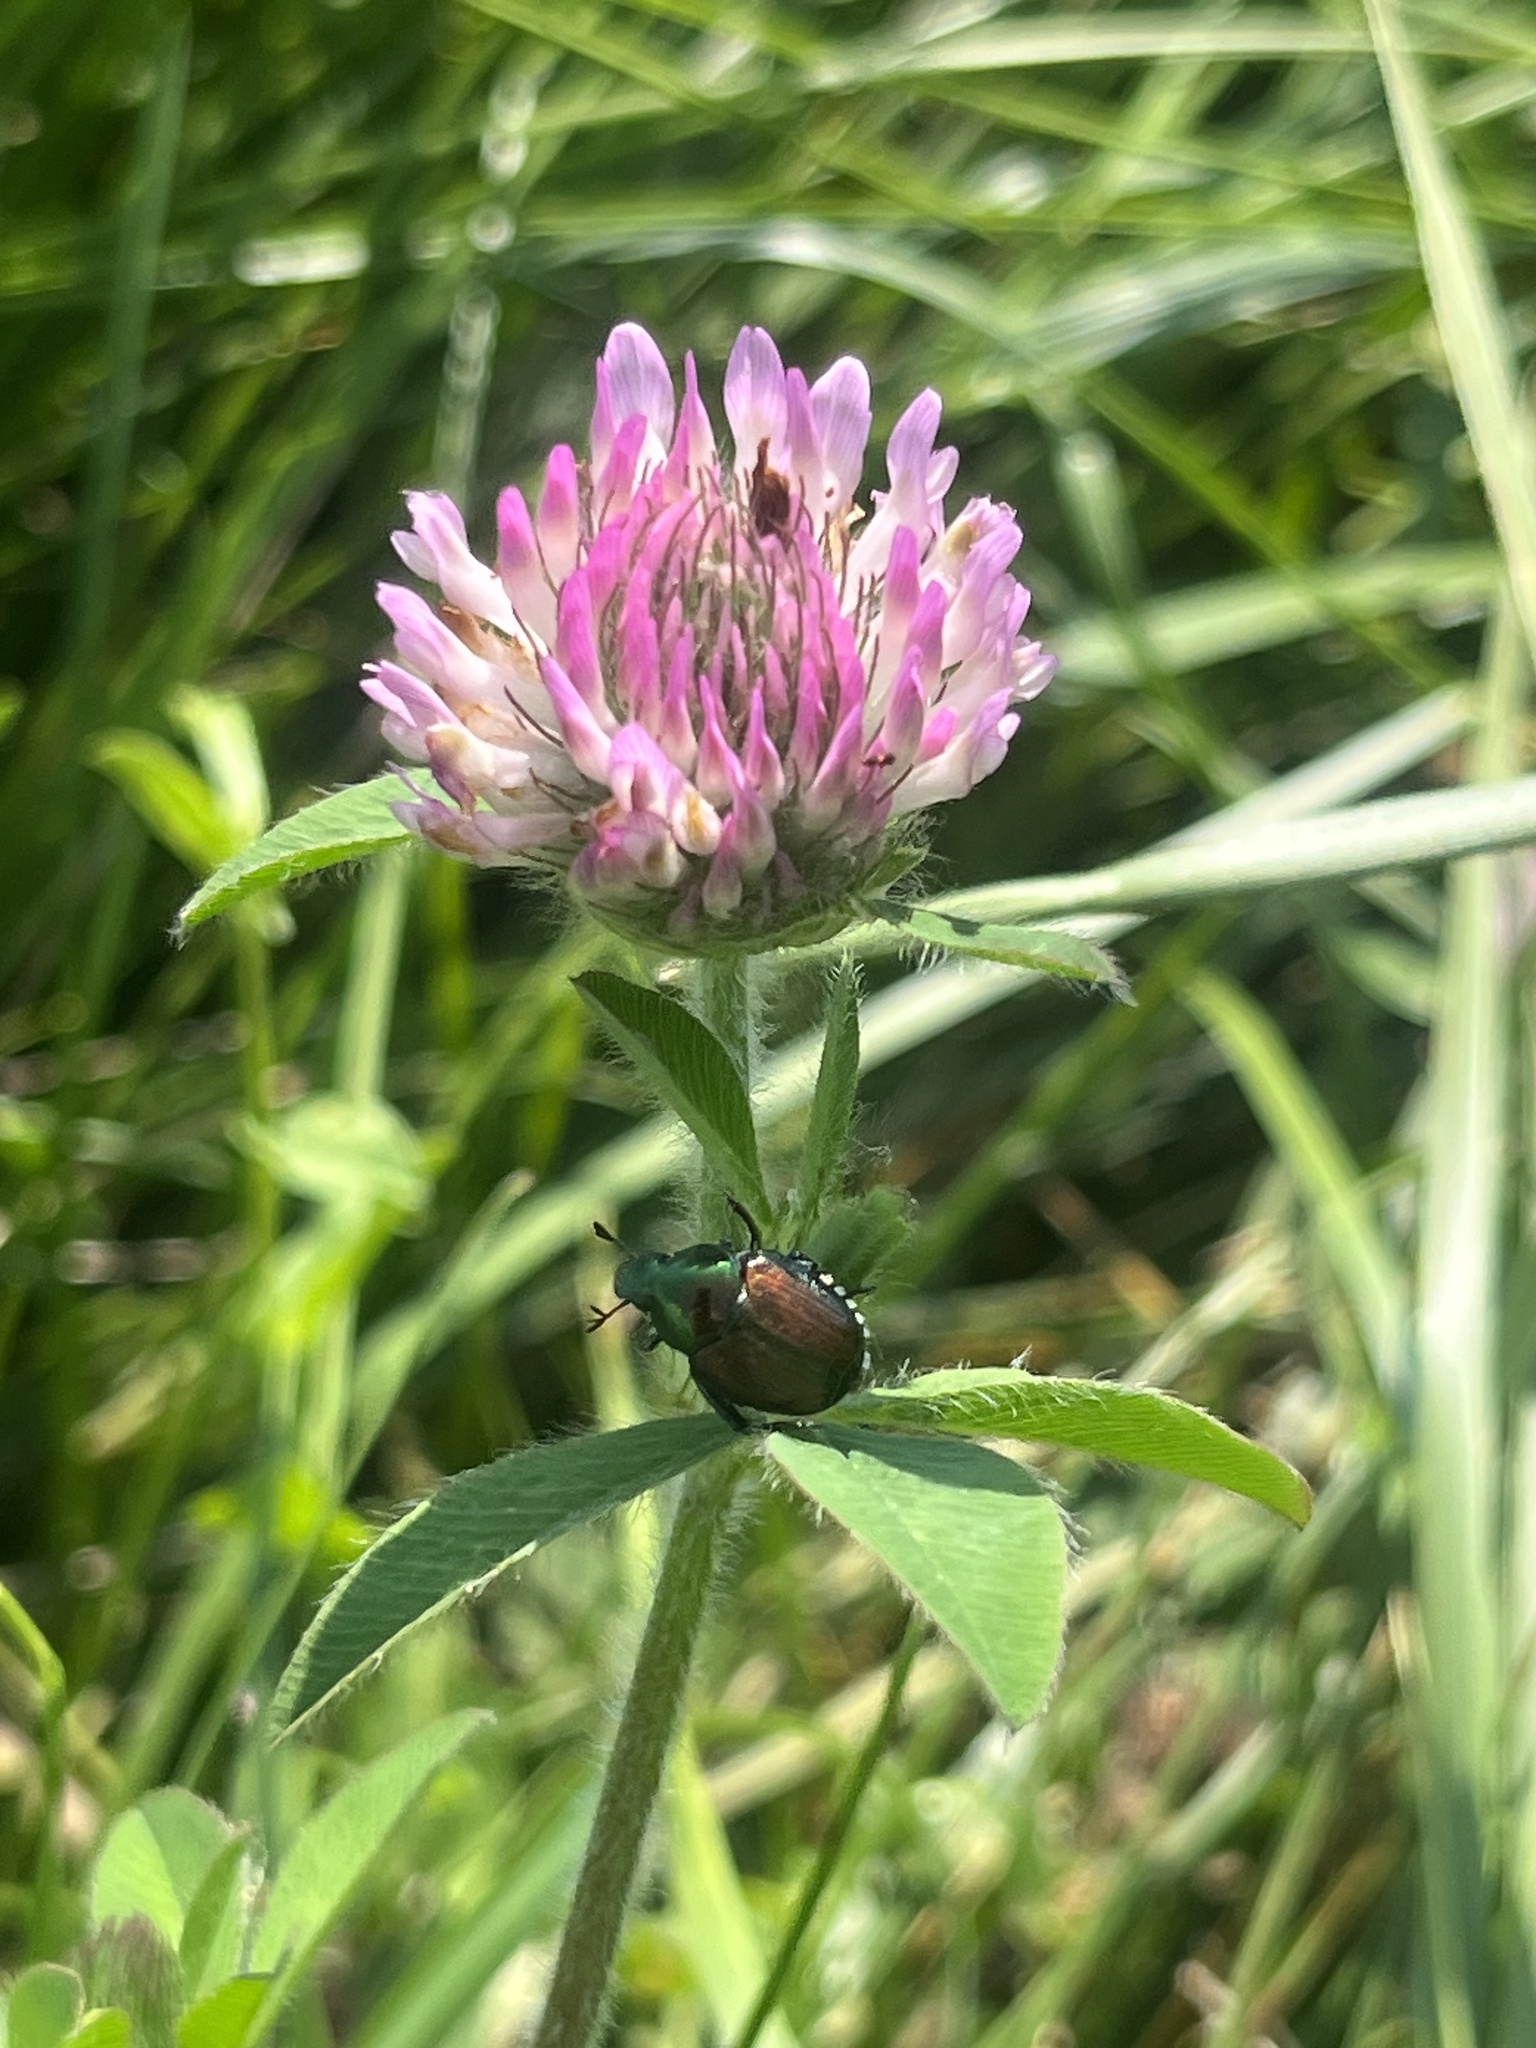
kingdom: Plantae
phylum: Tracheophyta
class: Magnoliopsida
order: Fabales
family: Fabaceae
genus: Trifolium
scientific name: Trifolium pratense
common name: Red clover
